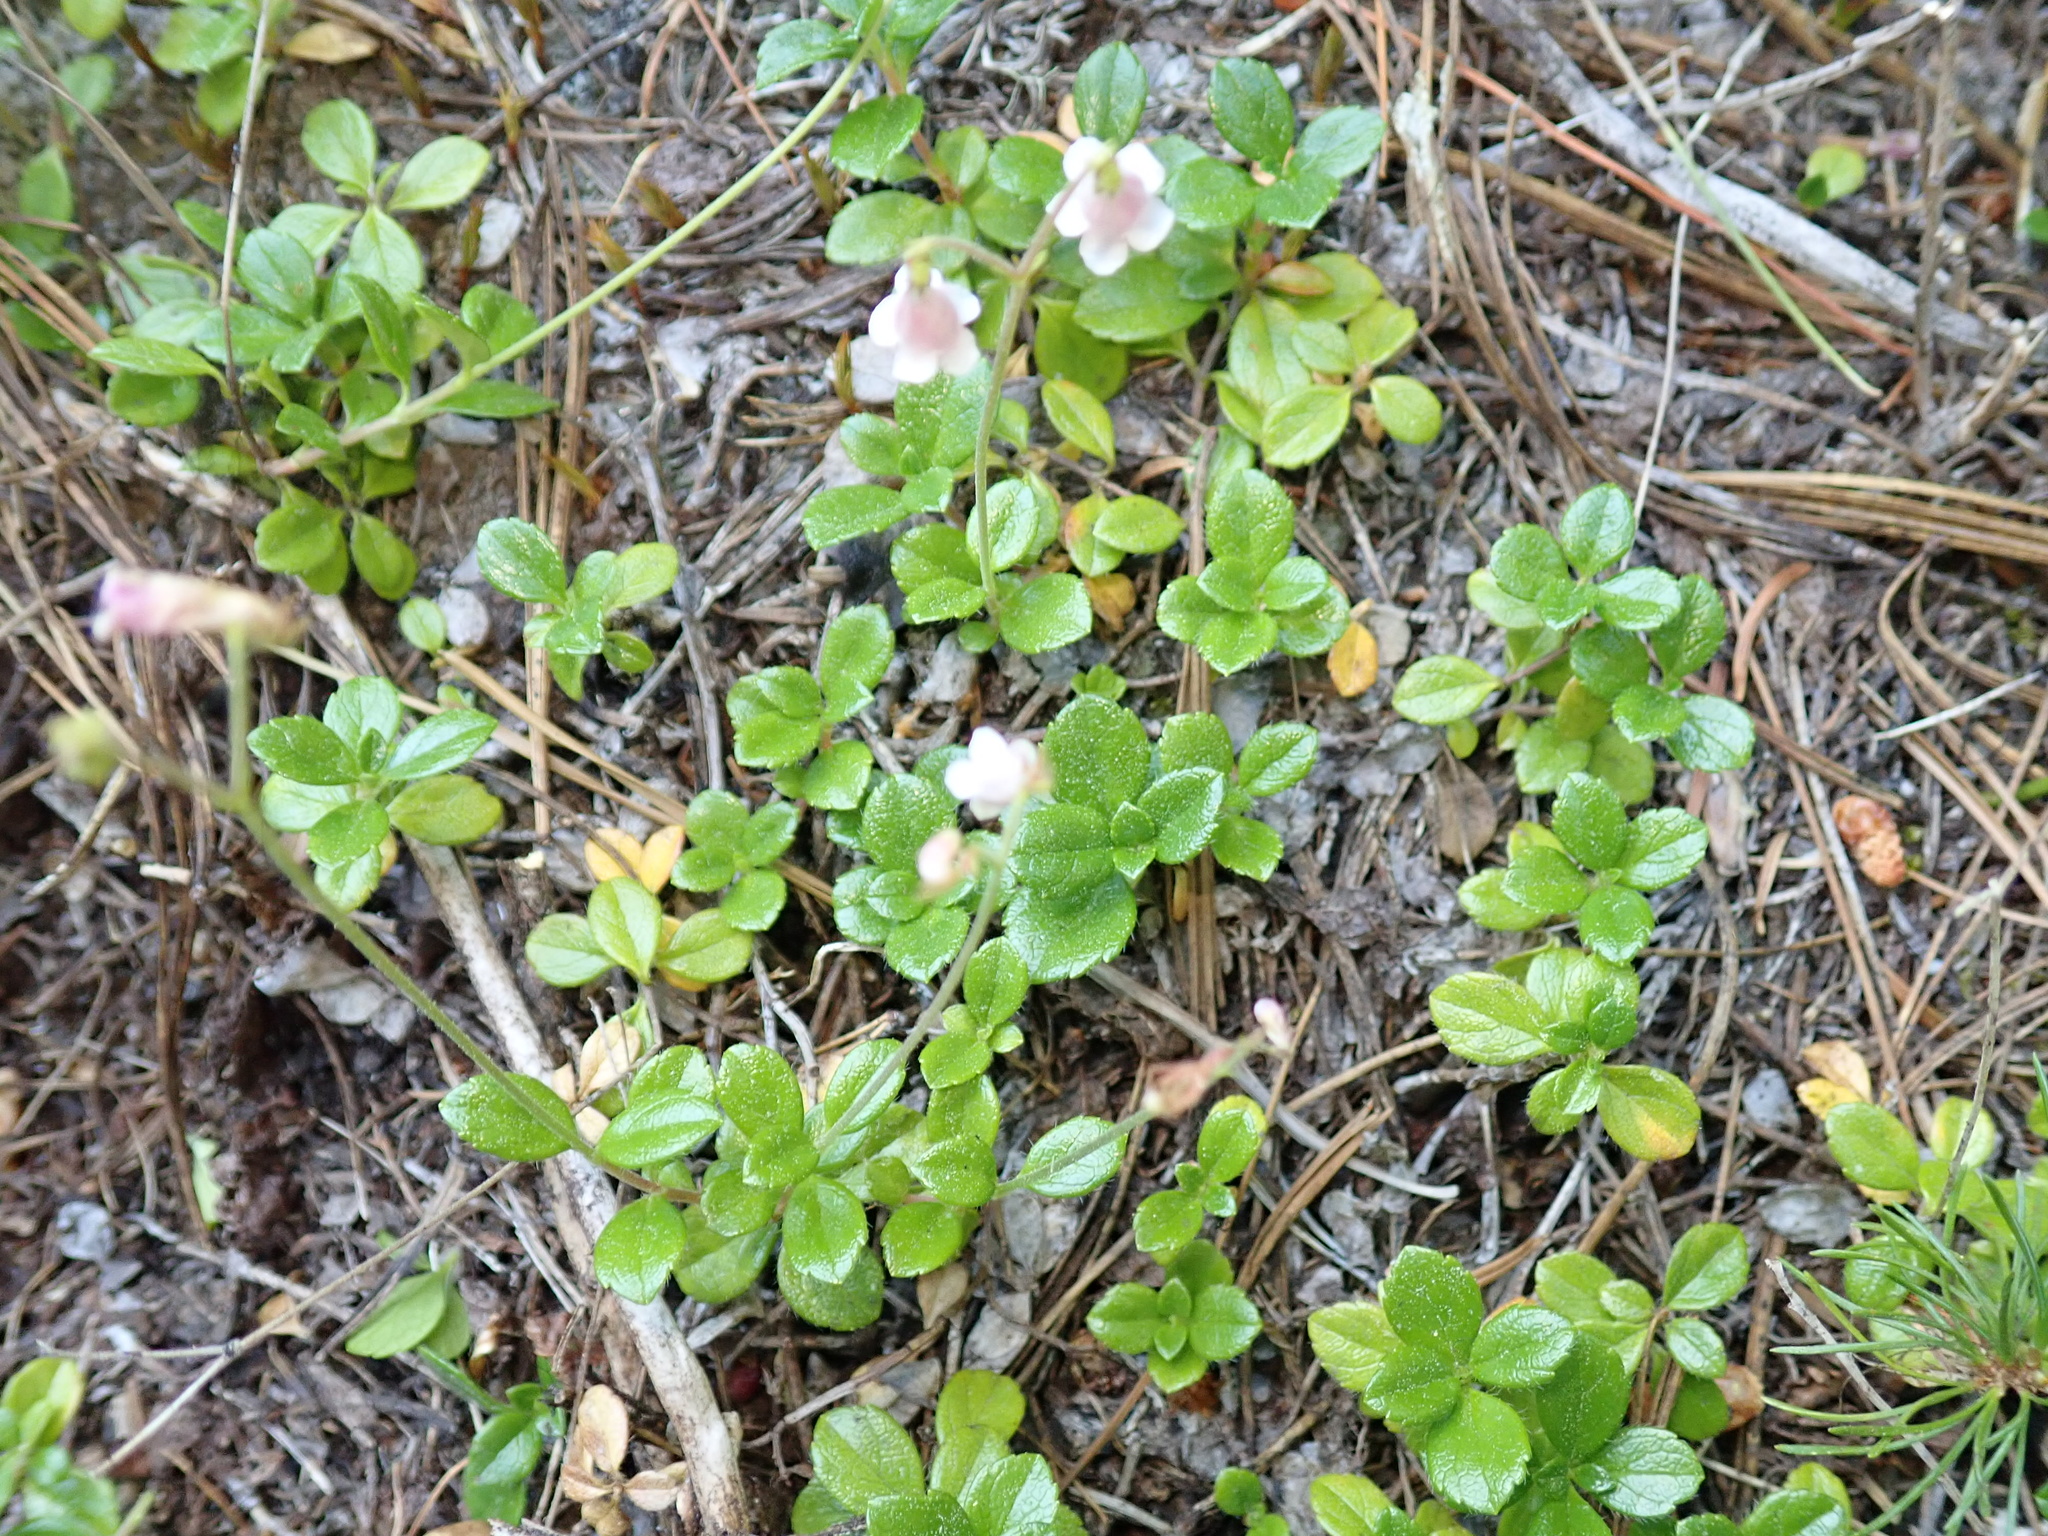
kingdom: Plantae
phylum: Tracheophyta
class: Magnoliopsida
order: Dipsacales
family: Caprifoliaceae
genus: Linnaea
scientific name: Linnaea borealis
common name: Twinflower
